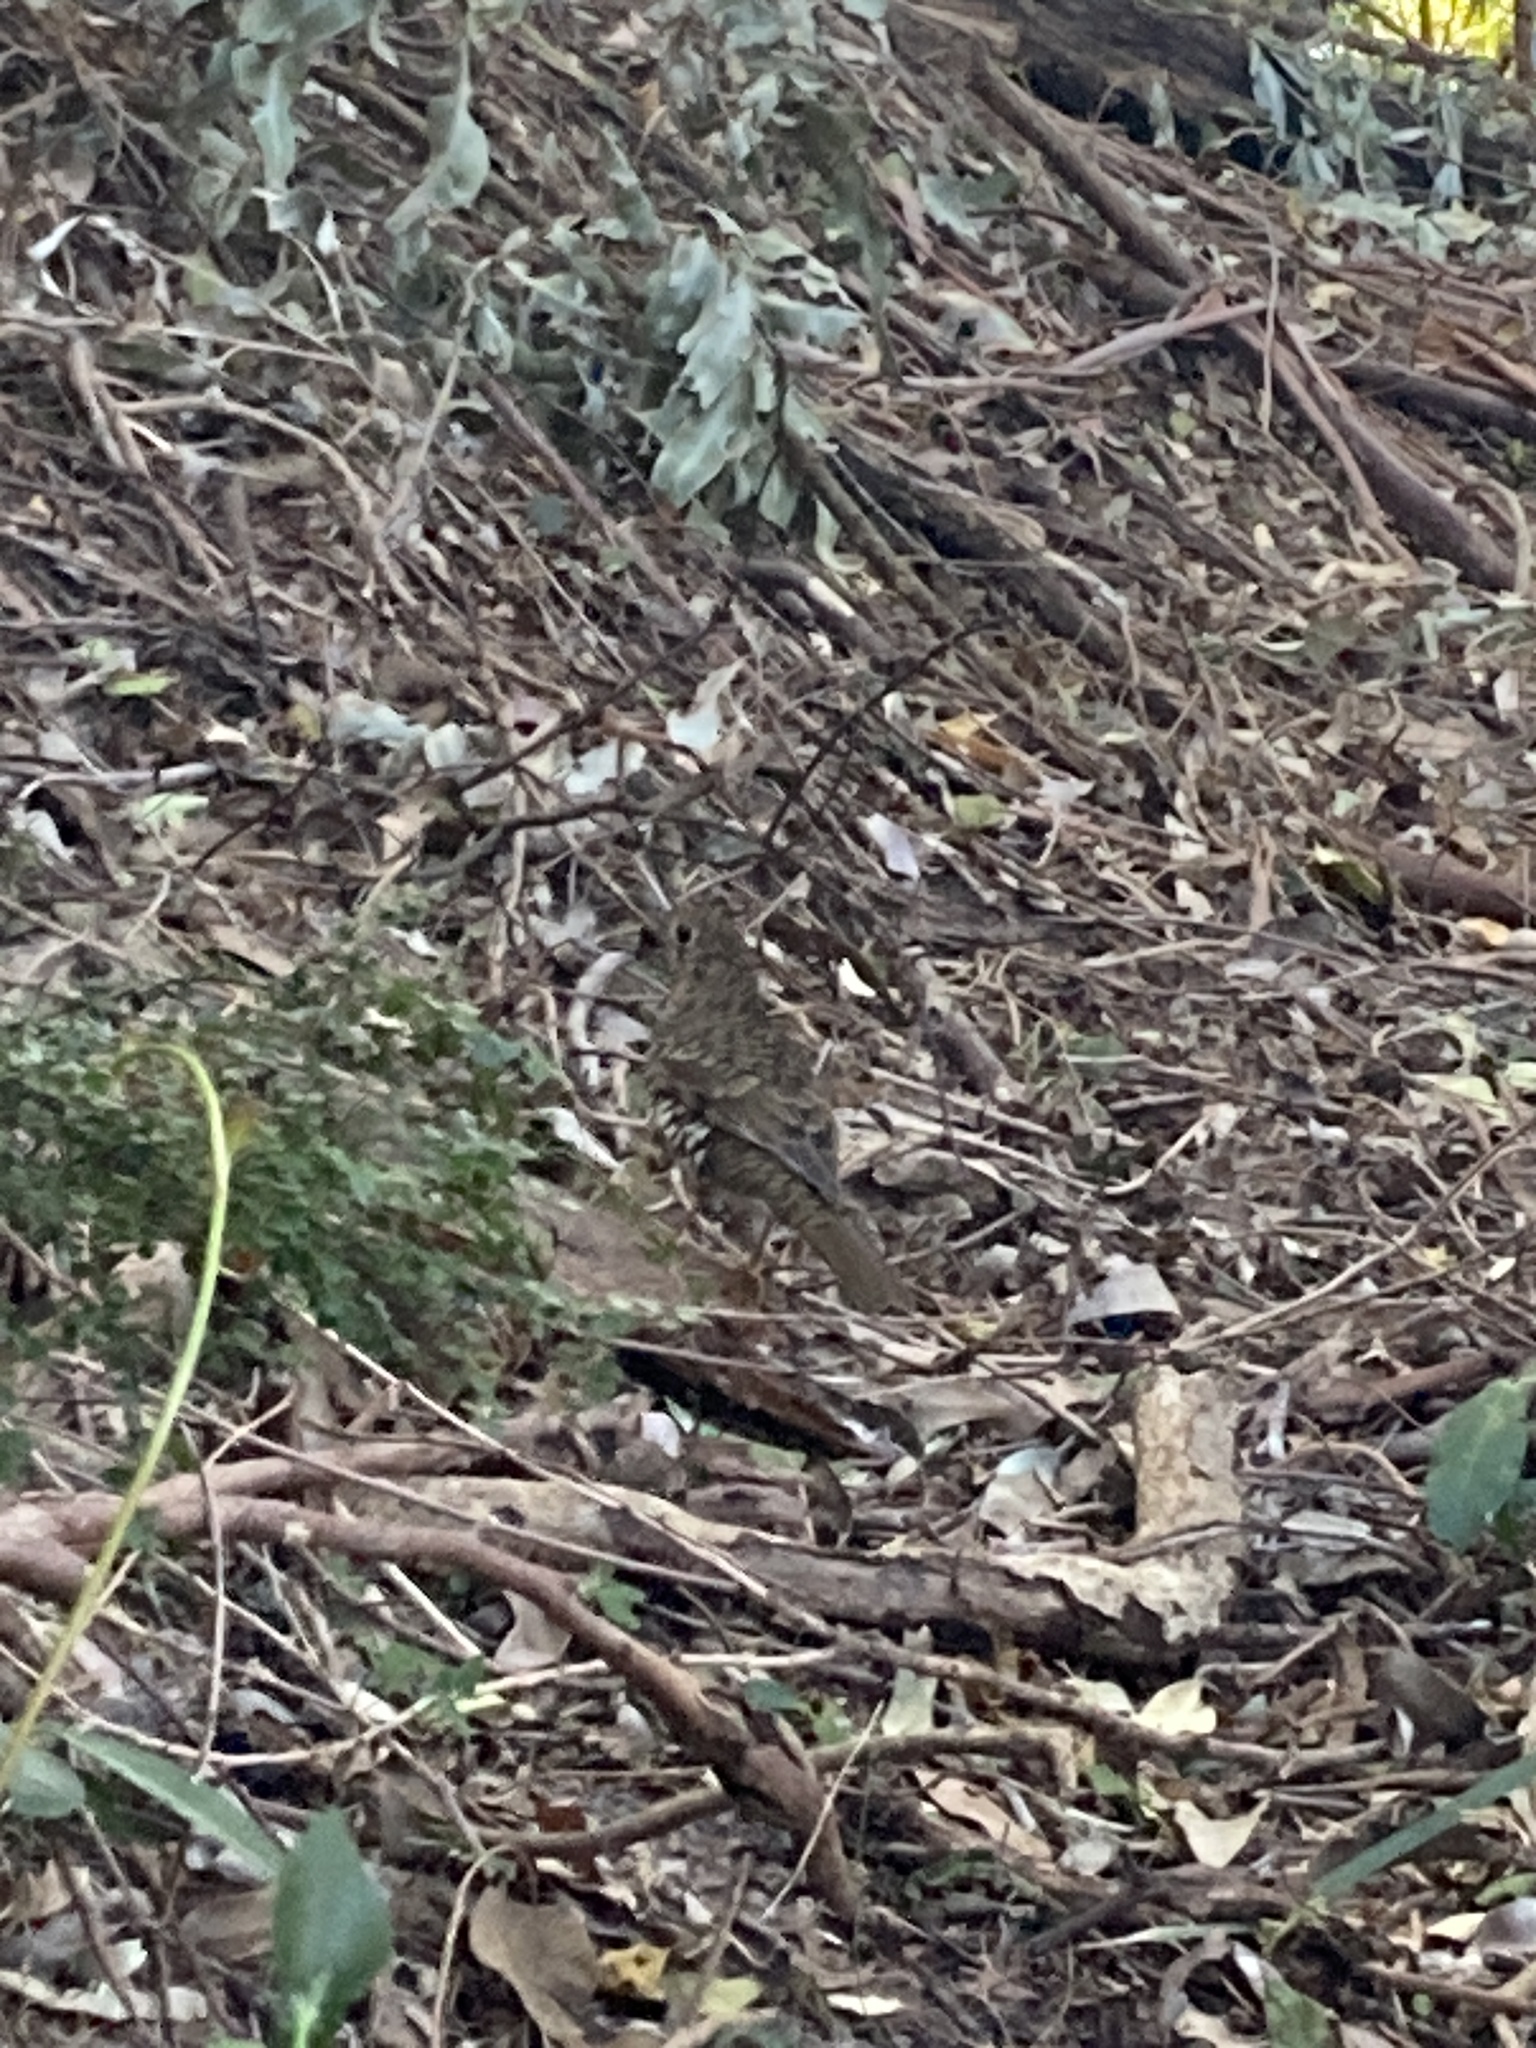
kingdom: Animalia
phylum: Chordata
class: Aves
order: Passeriformes
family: Turdidae
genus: Zoothera
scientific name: Zoothera lunulata
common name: Bassian thrush
